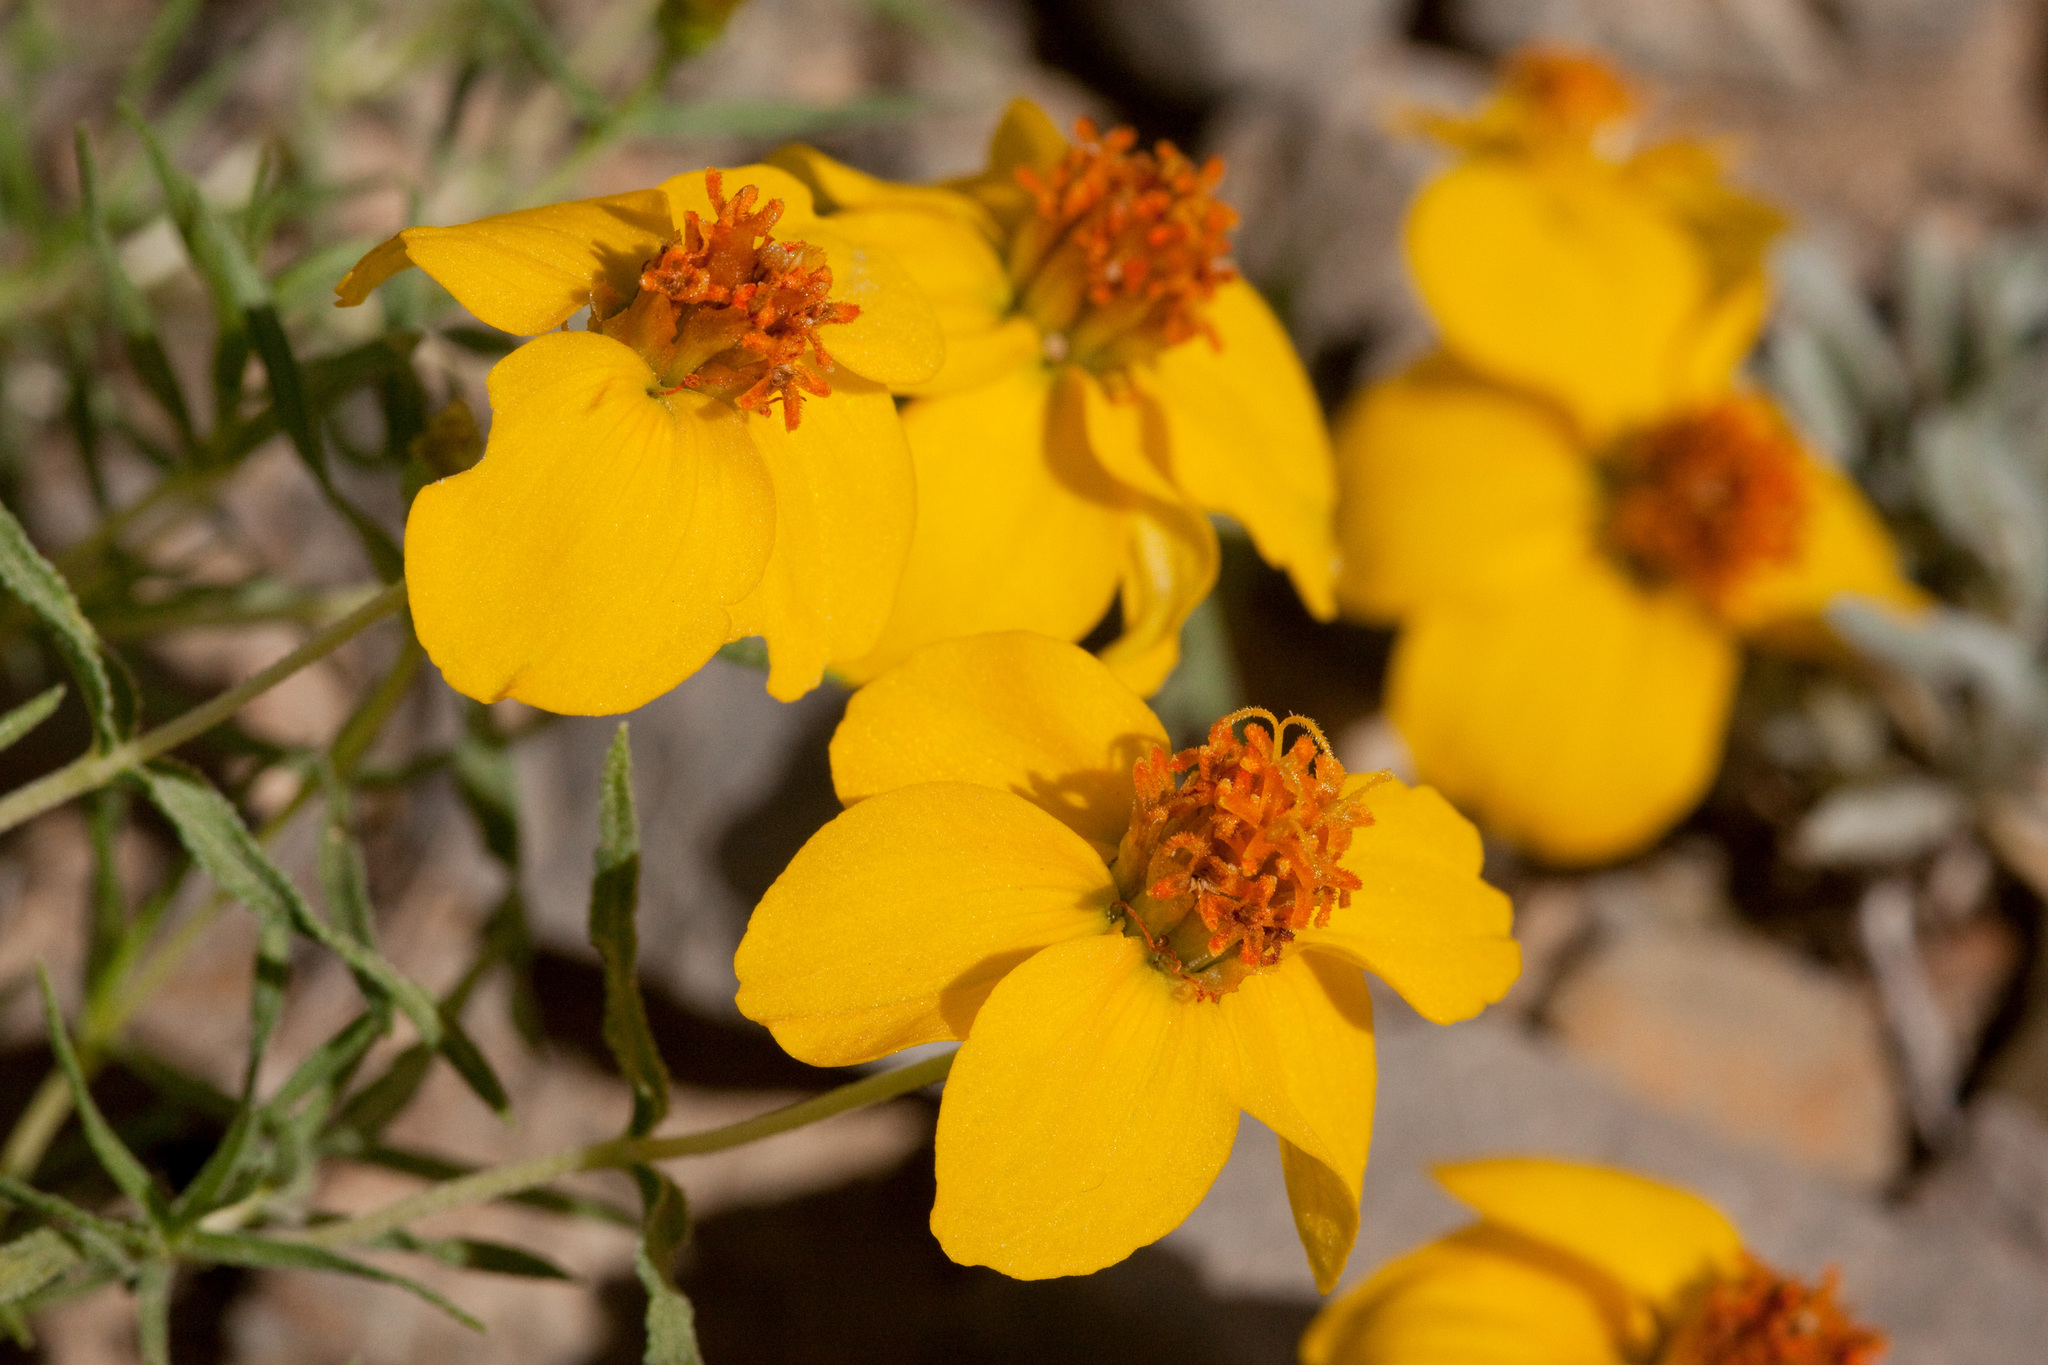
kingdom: Plantae
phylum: Tracheophyta
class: Magnoliopsida
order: Asterales
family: Asteraceae
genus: Zinnia
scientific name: Zinnia grandiflora
